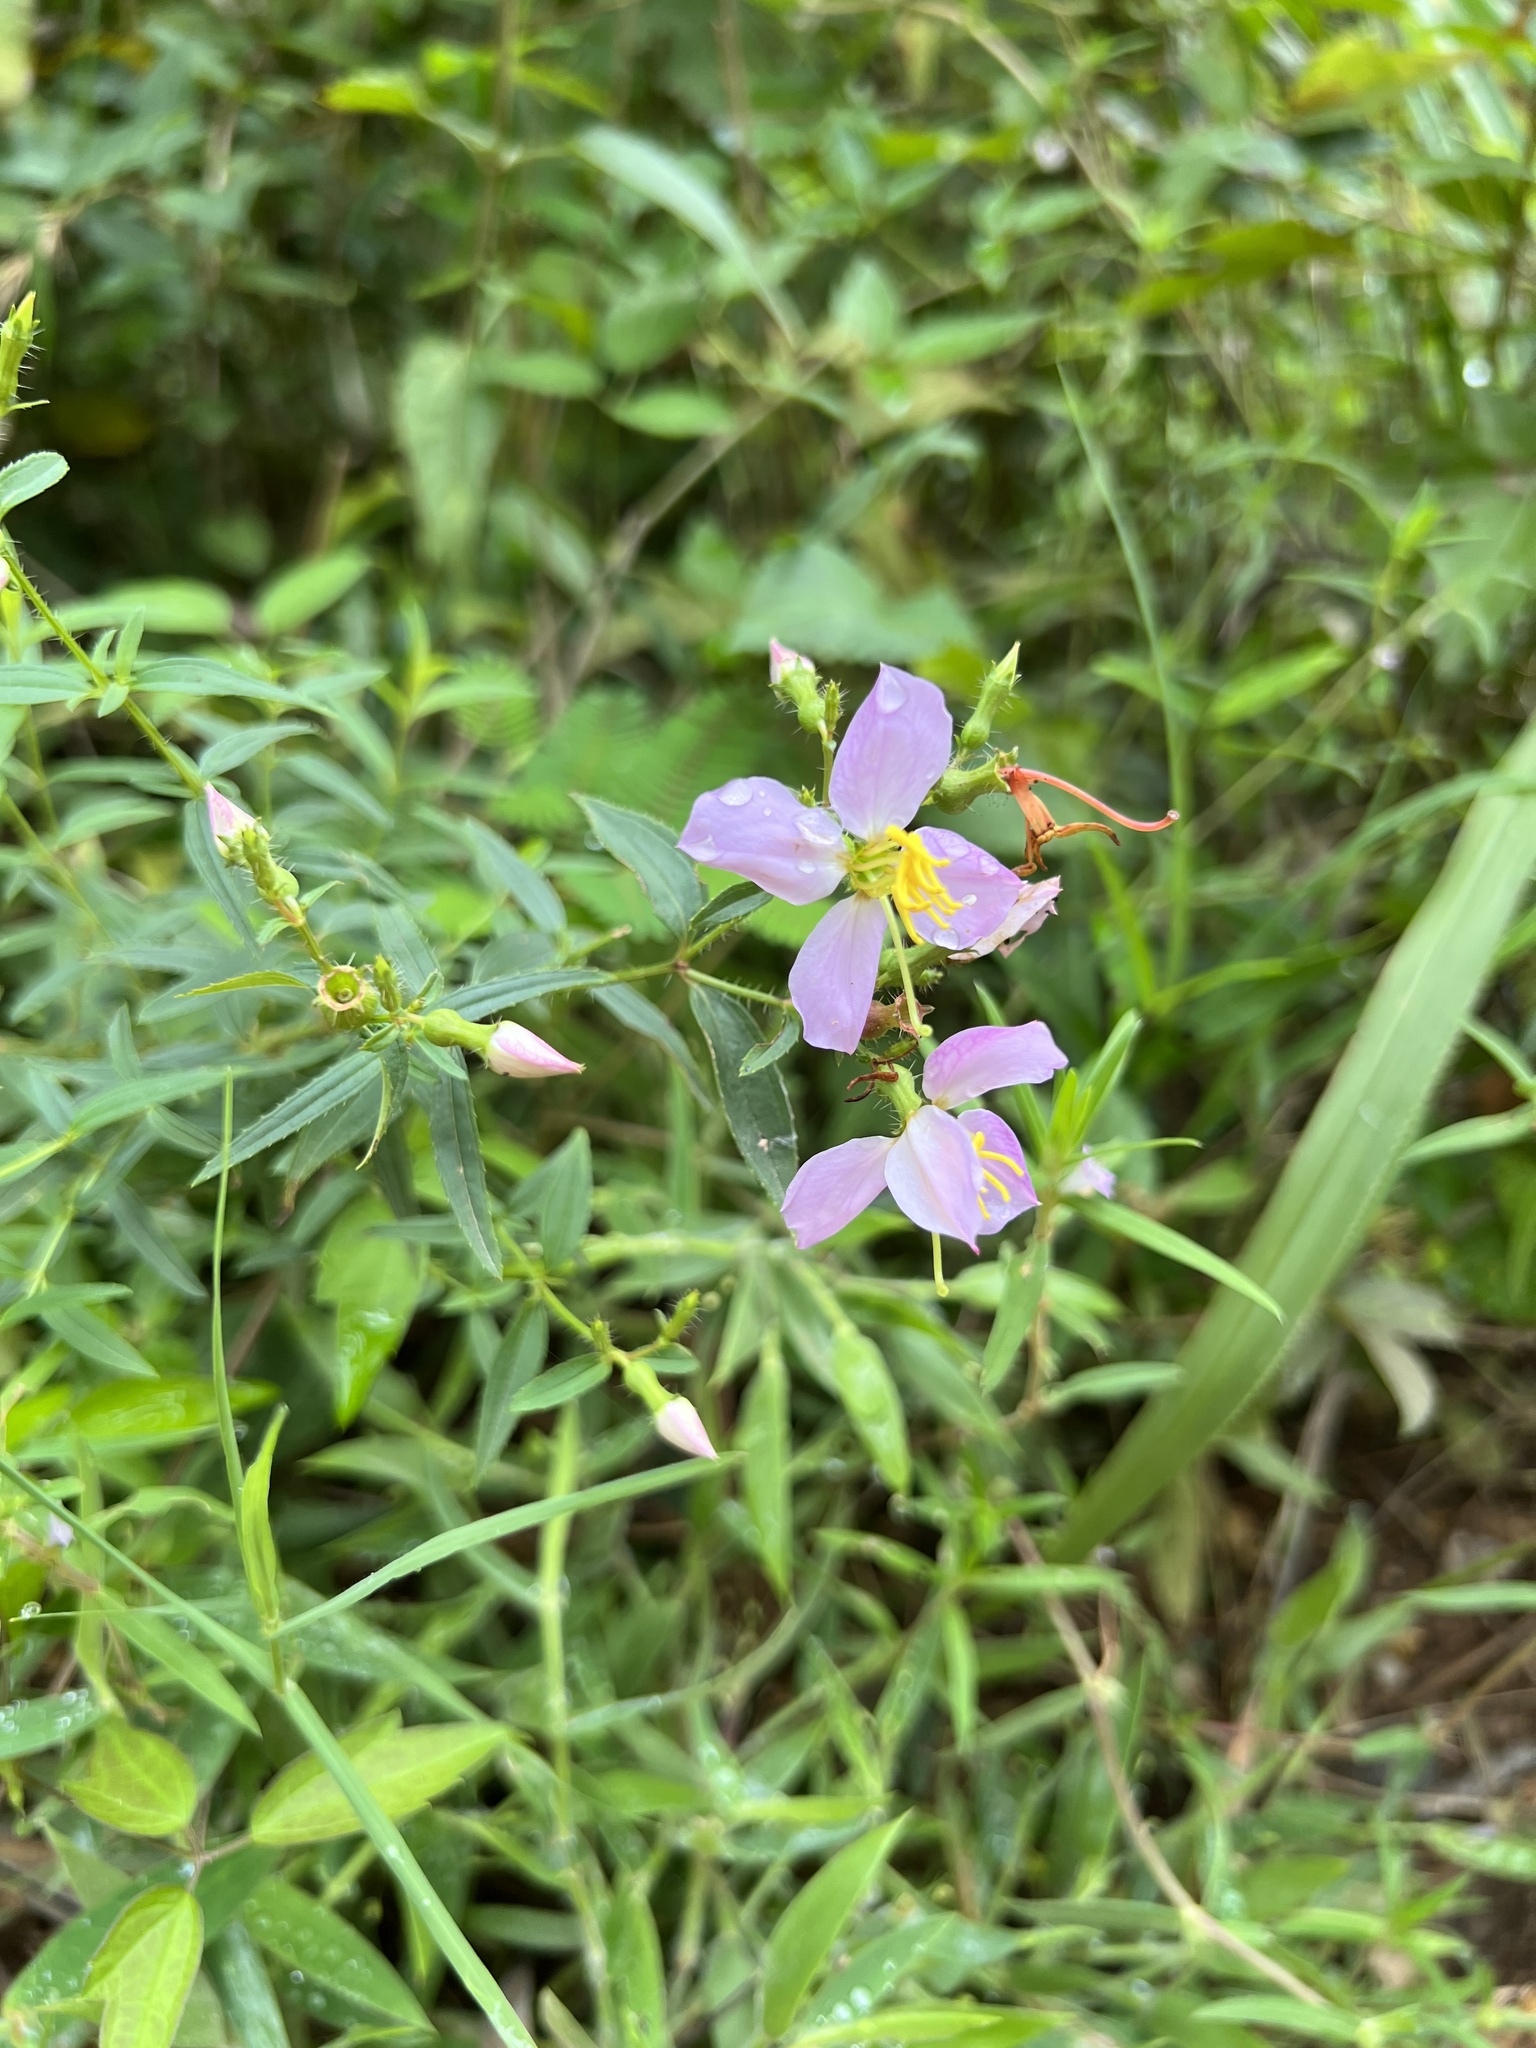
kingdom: Plantae
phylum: Tracheophyta
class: Magnoliopsida
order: Myrtales
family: Melastomataceae
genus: Rhexia
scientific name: Rhexia mariana
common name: Dull meadow-pitcher
